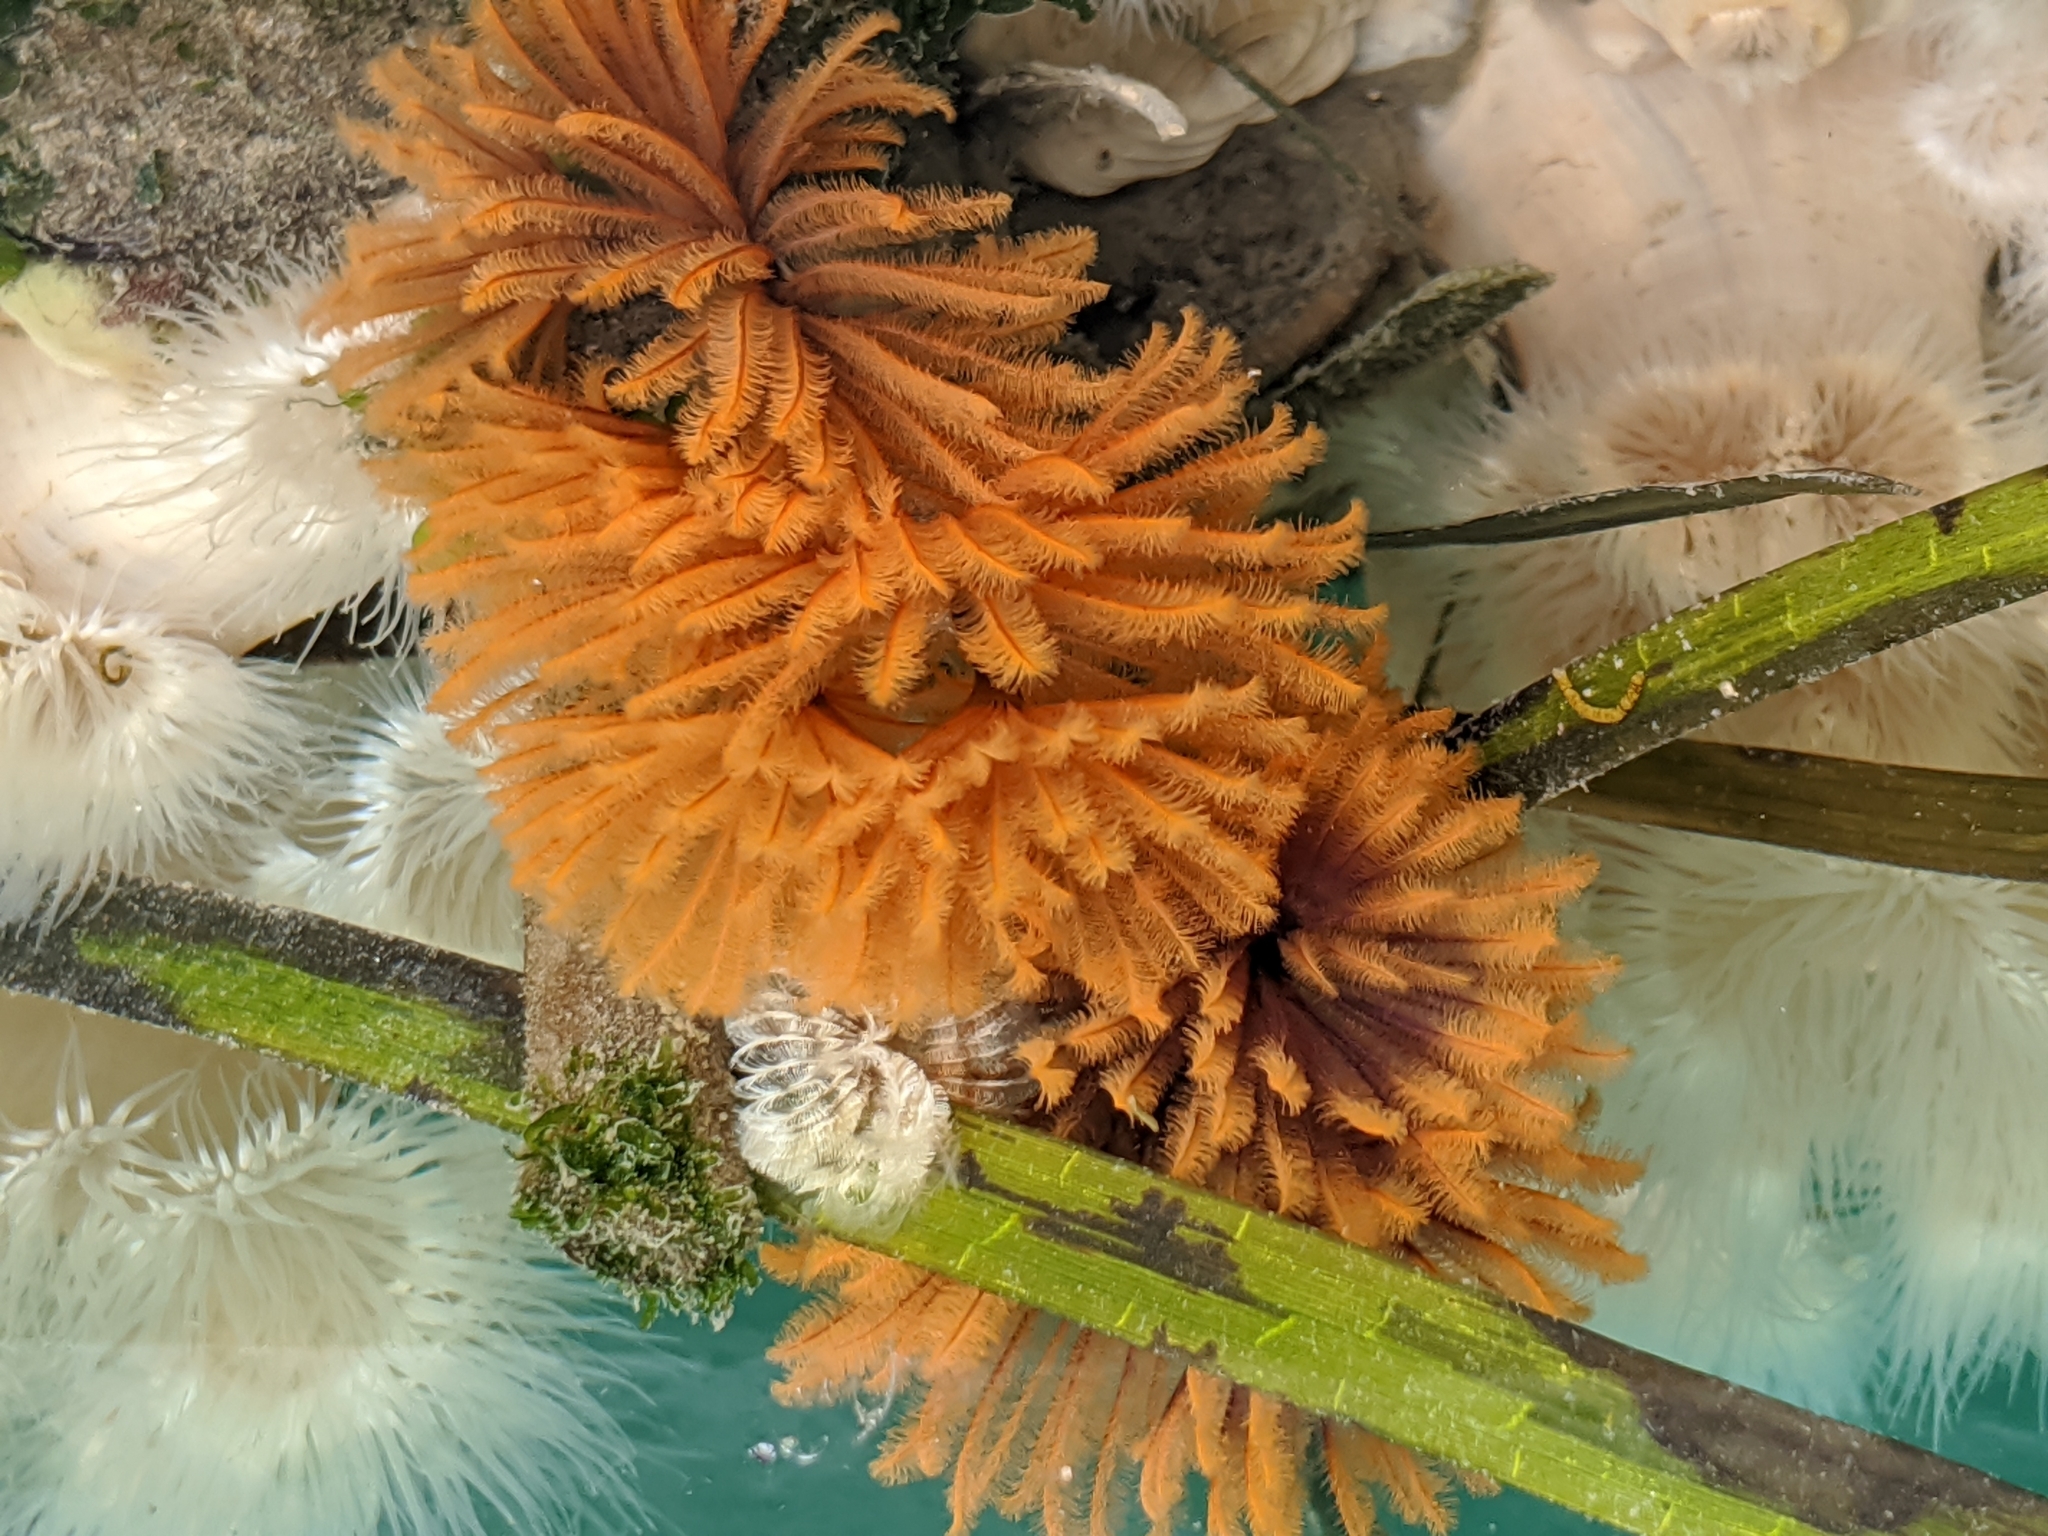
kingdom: Animalia
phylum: Annelida
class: Polychaeta
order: Sabellida
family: Sabellidae
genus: Eudistylia
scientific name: Eudistylia polymorpha
